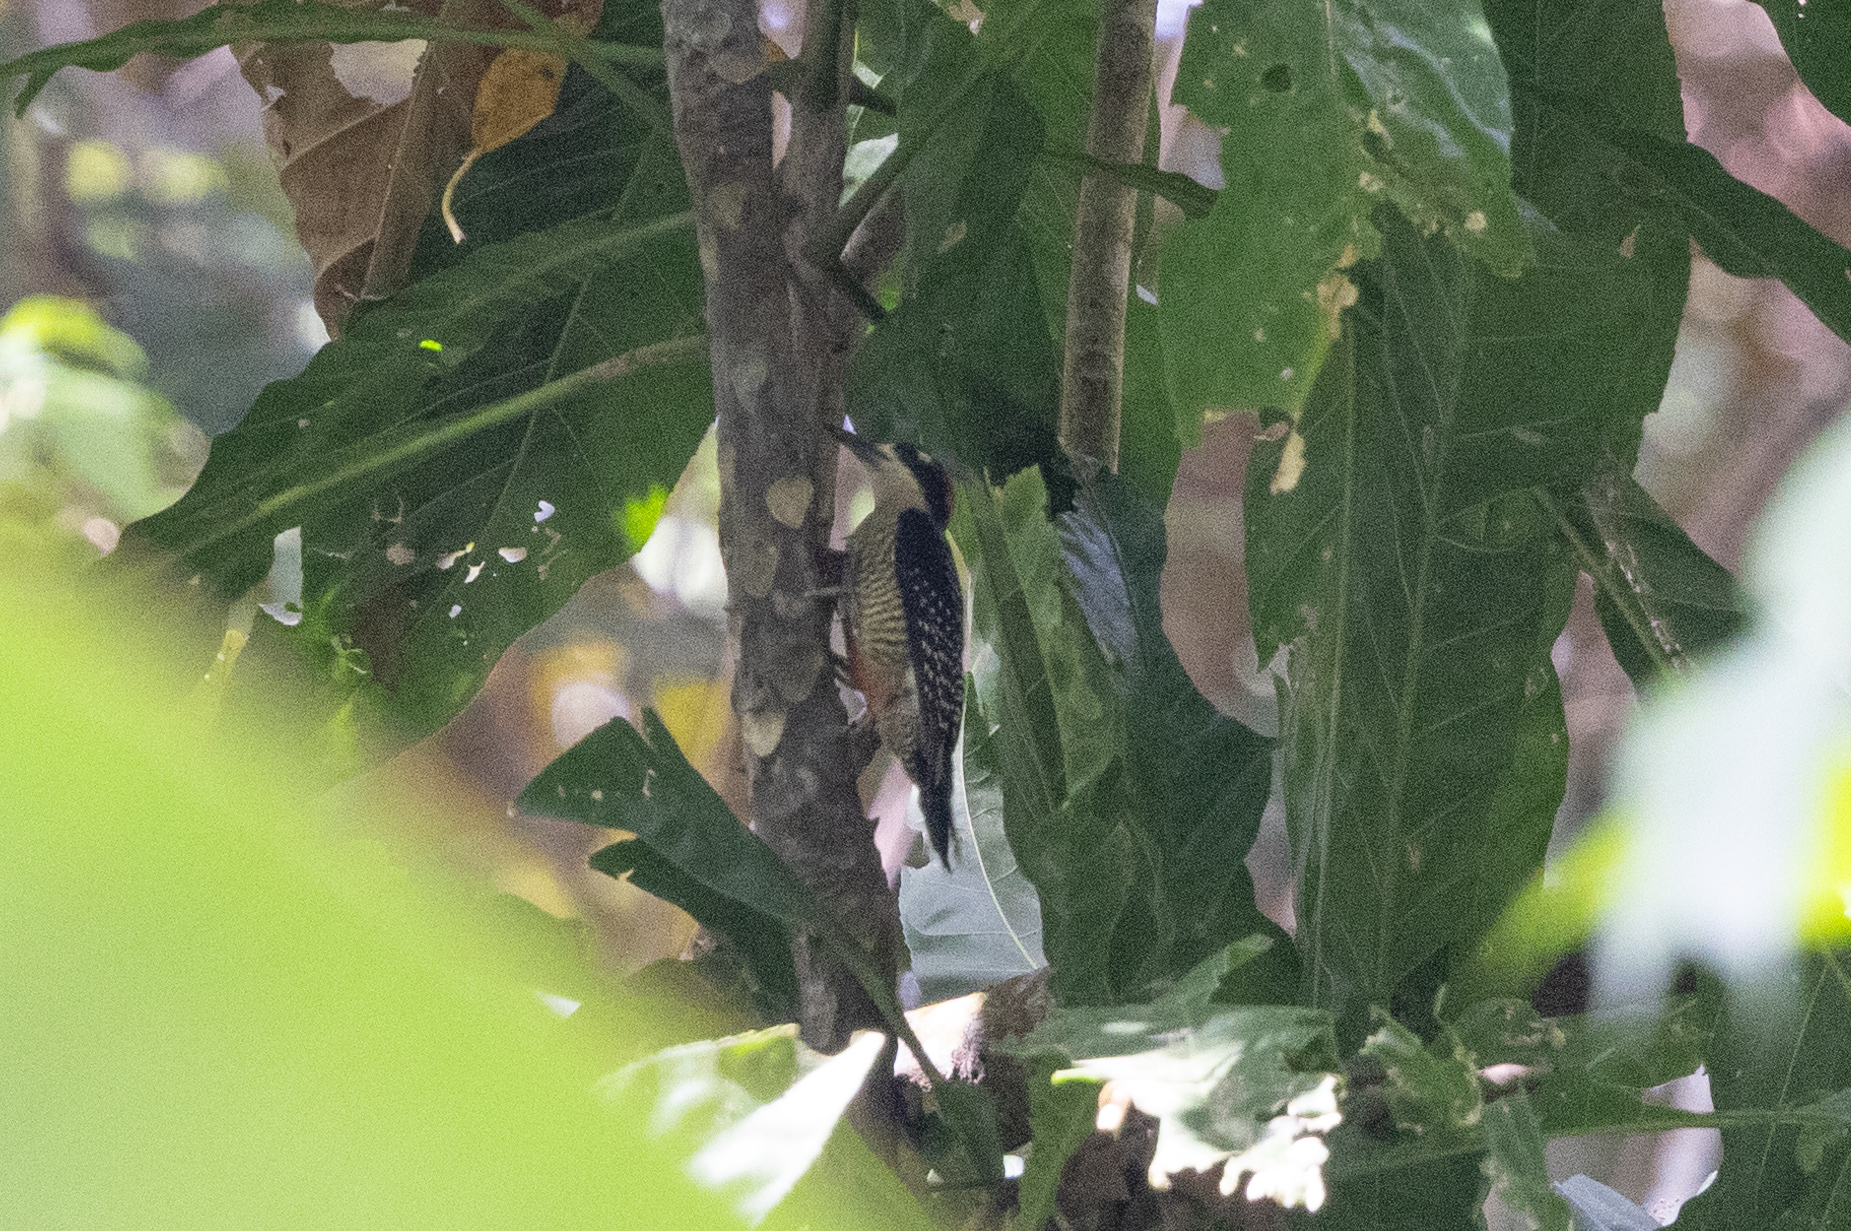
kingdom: Animalia
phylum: Chordata
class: Aves
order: Piciformes
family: Picidae
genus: Melanerpes
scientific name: Melanerpes pucherani
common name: Black-cheeked woodpecker
